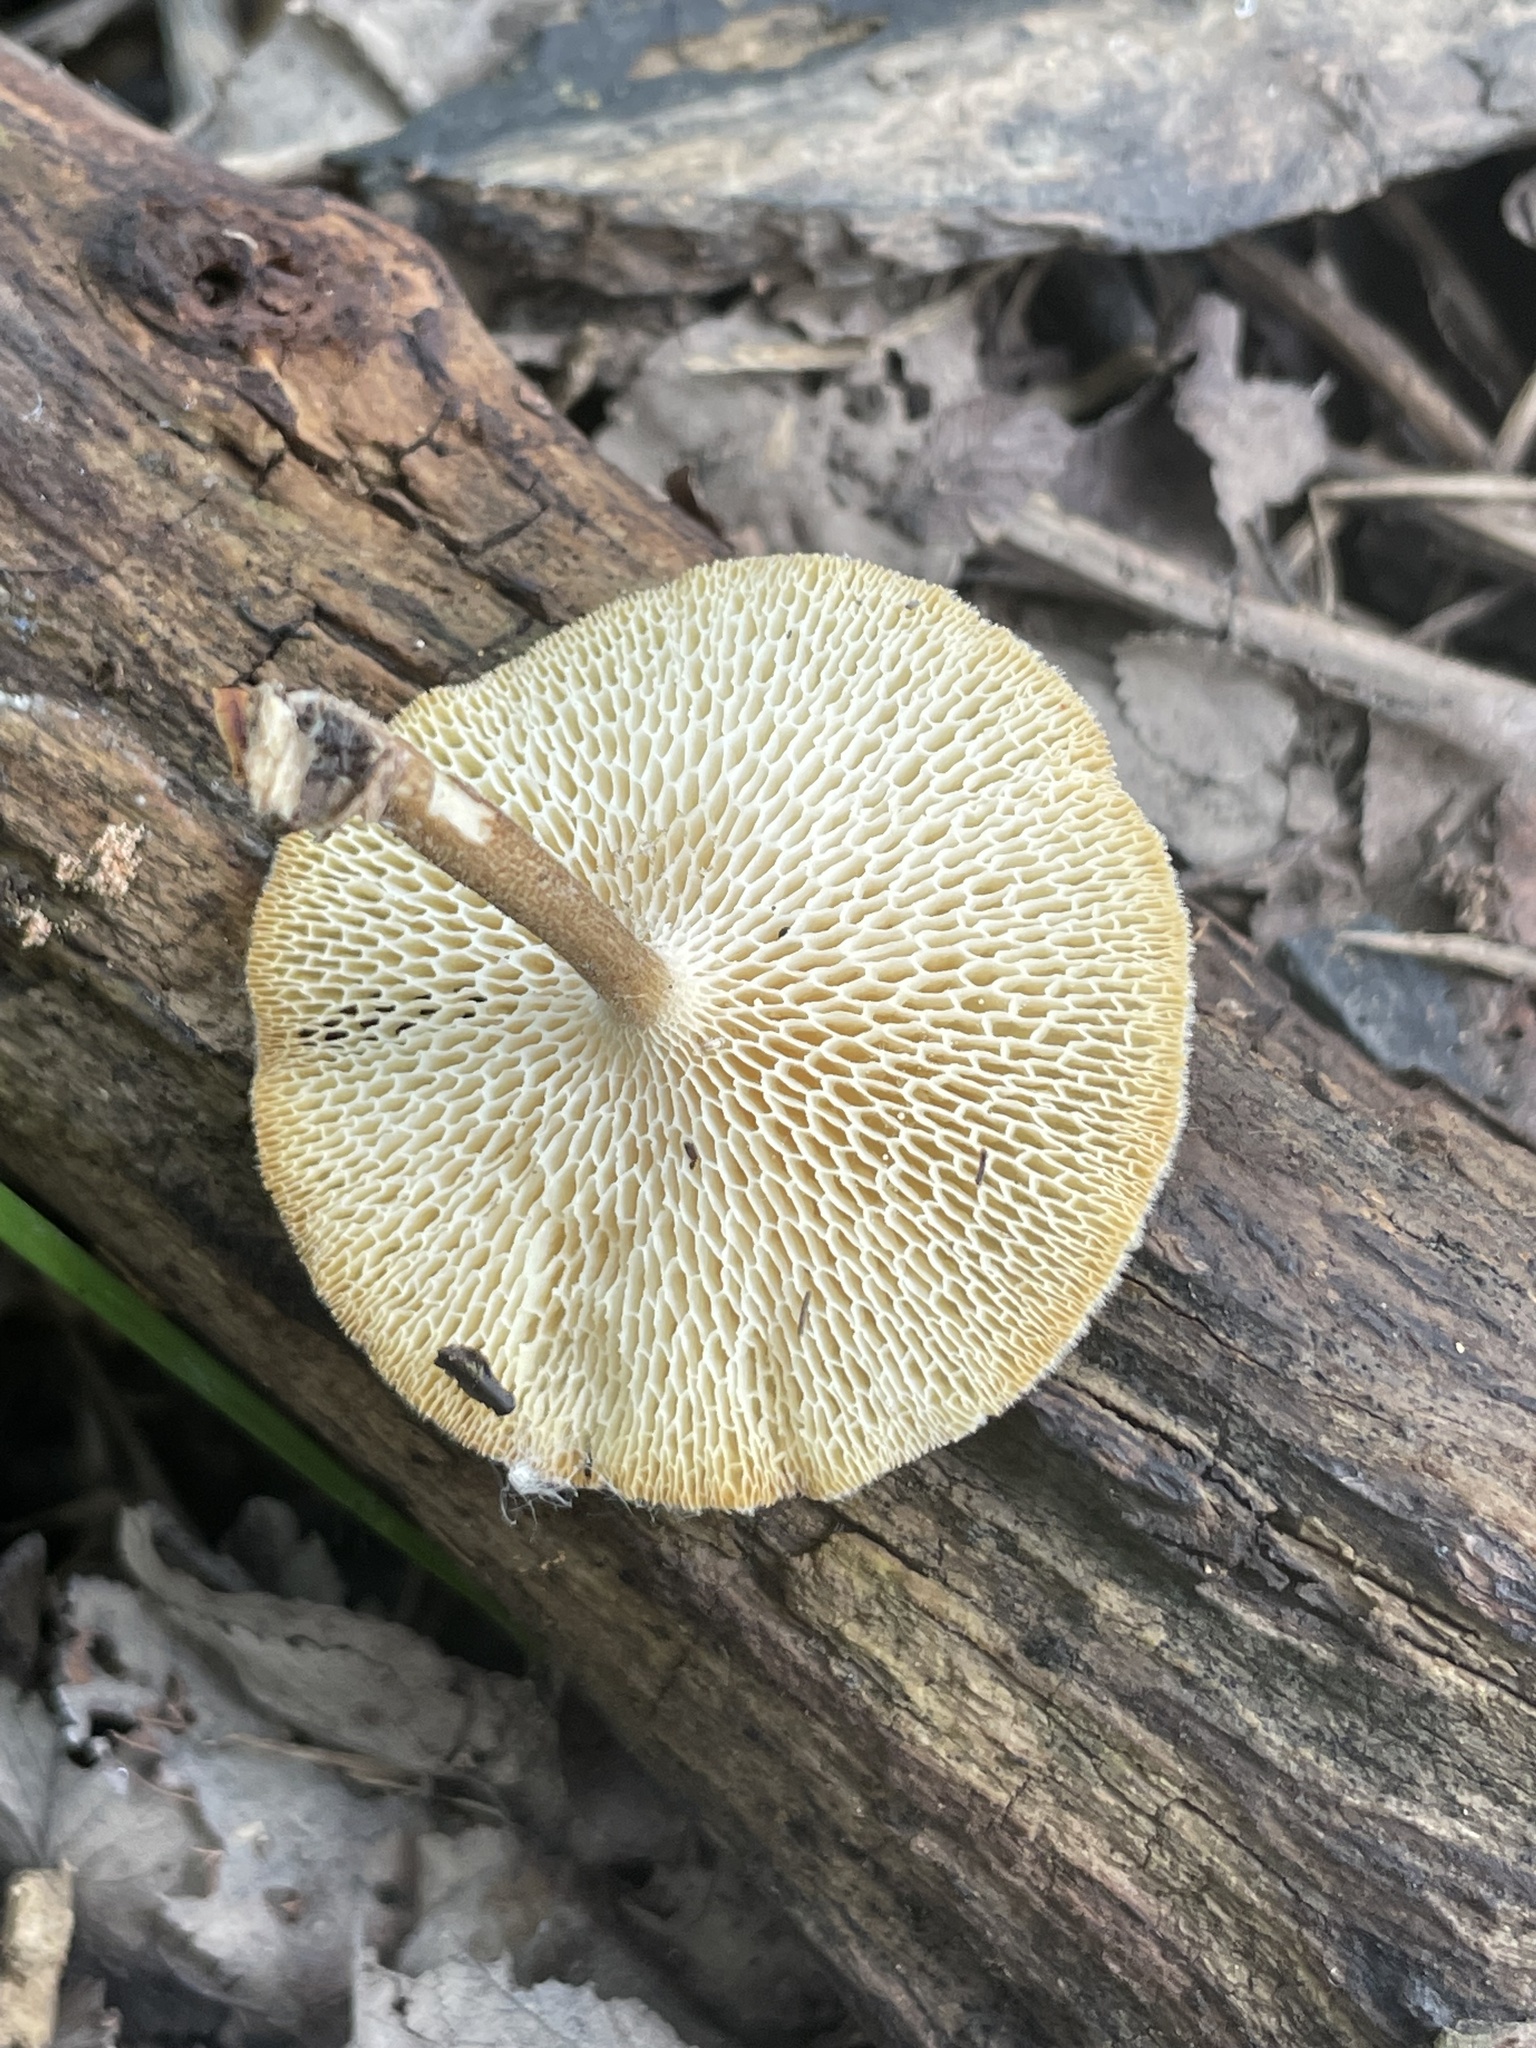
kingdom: Fungi
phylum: Basidiomycota
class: Agaricomycetes
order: Polyporales
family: Polyporaceae
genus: Lentinus
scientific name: Lentinus arcularius
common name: Spring polypore
